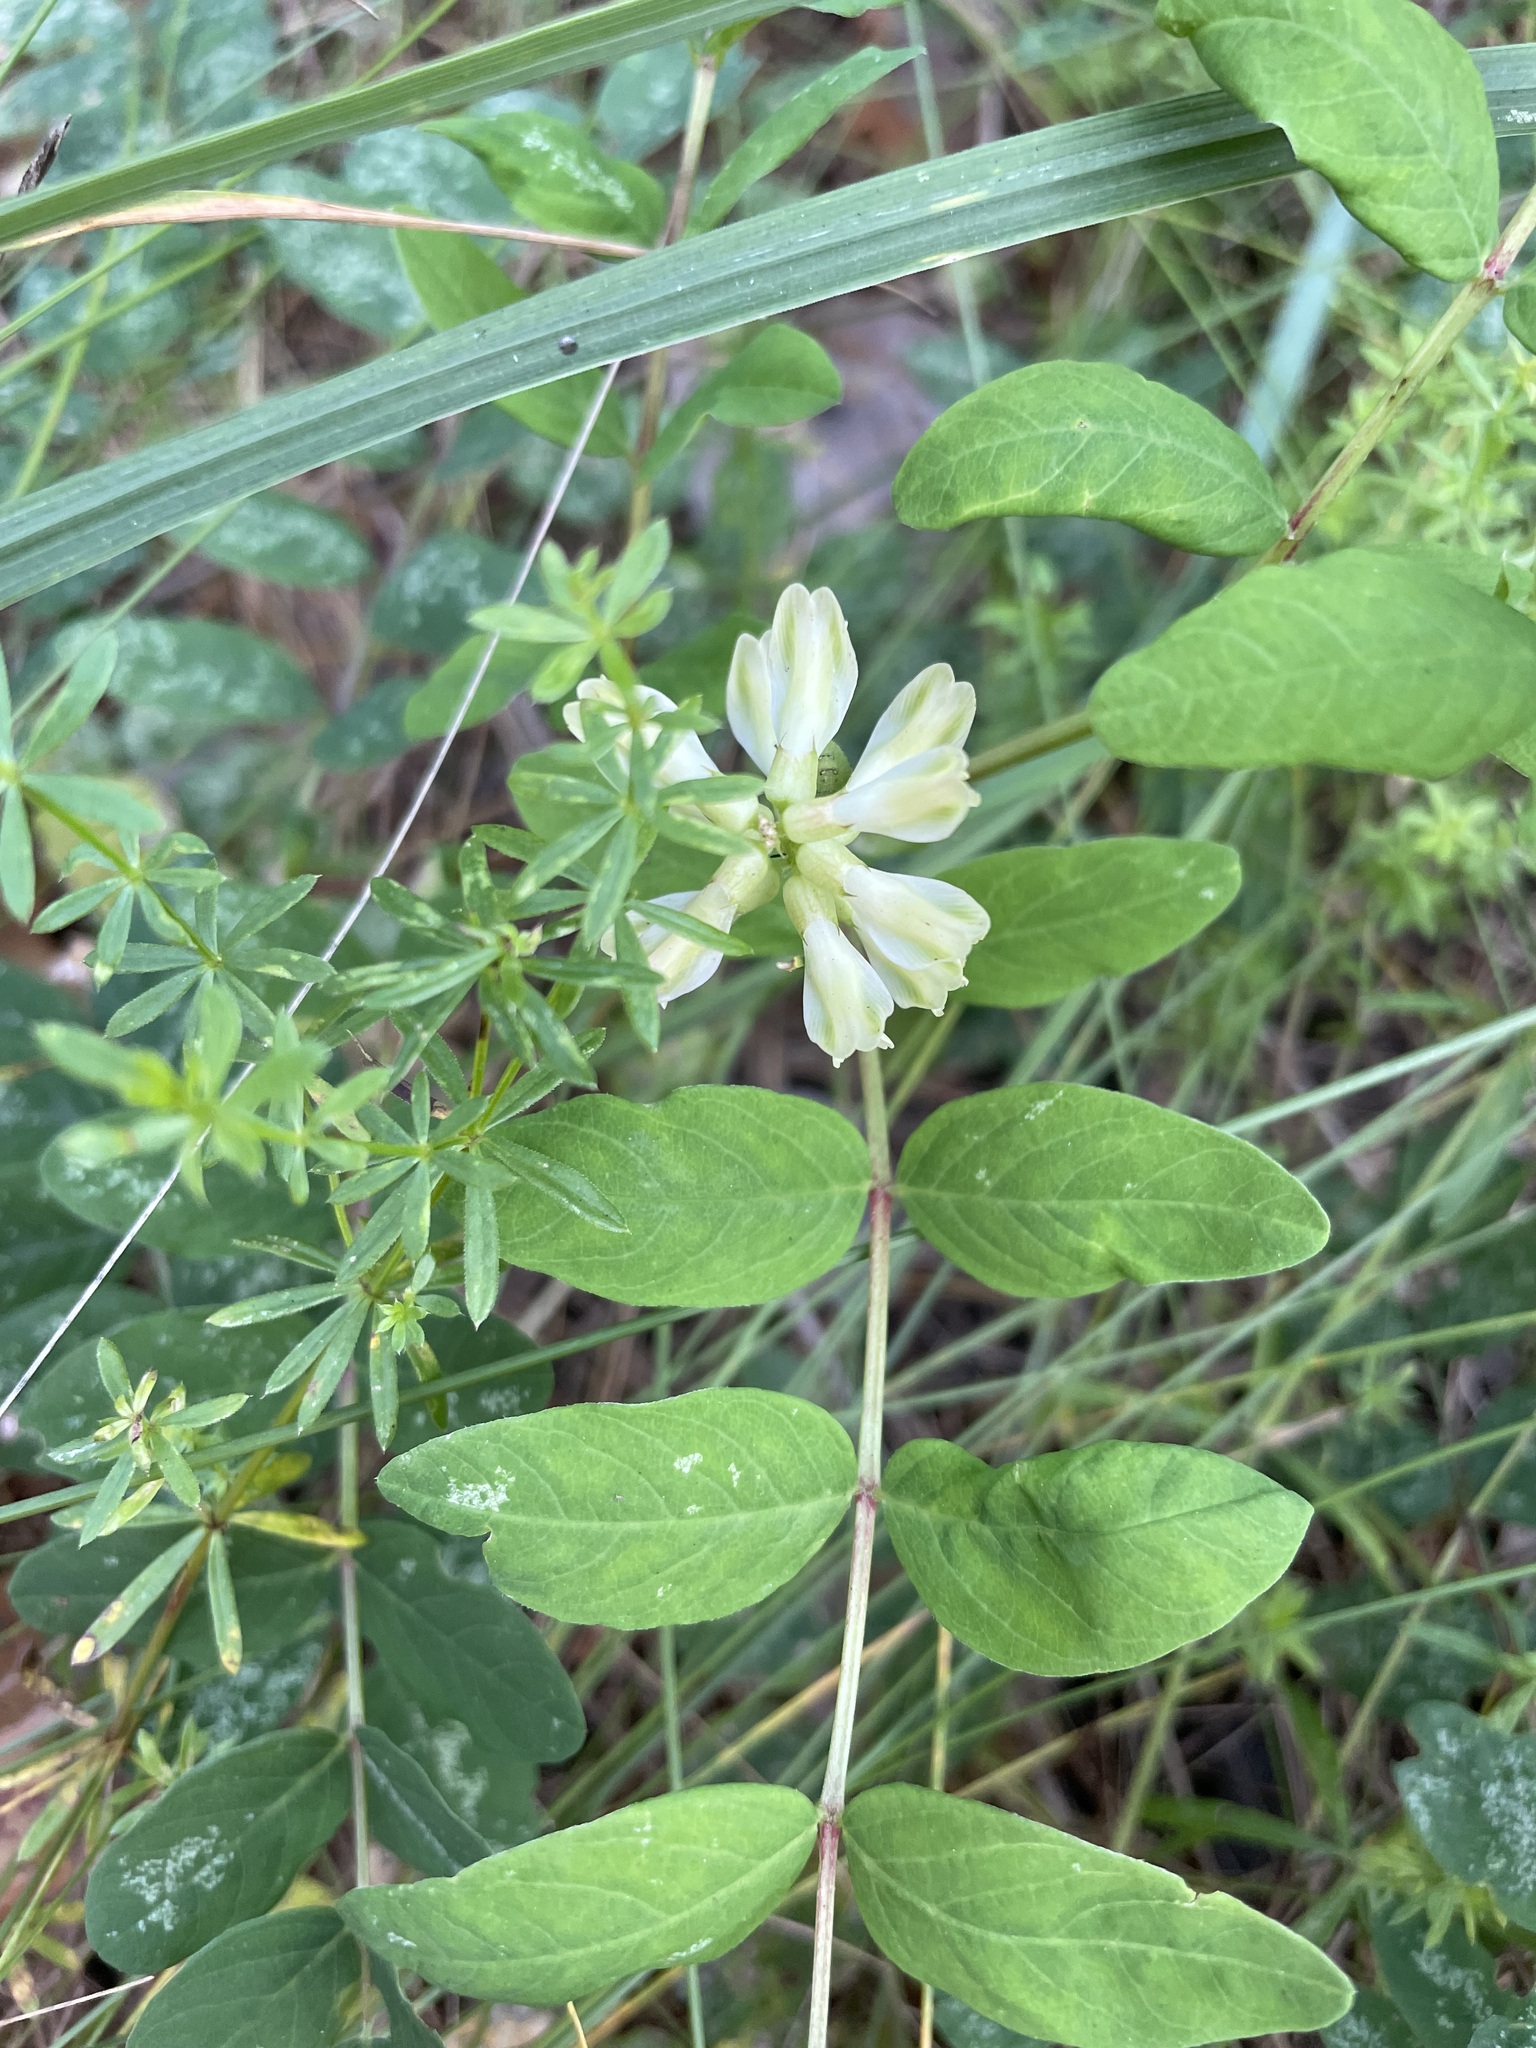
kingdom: Plantae
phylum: Tracheophyta
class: Magnoliopsida
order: Fabales
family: Fabaceae
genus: Astragalus
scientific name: Astragalus glycyphyllos
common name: Wild liquorice
